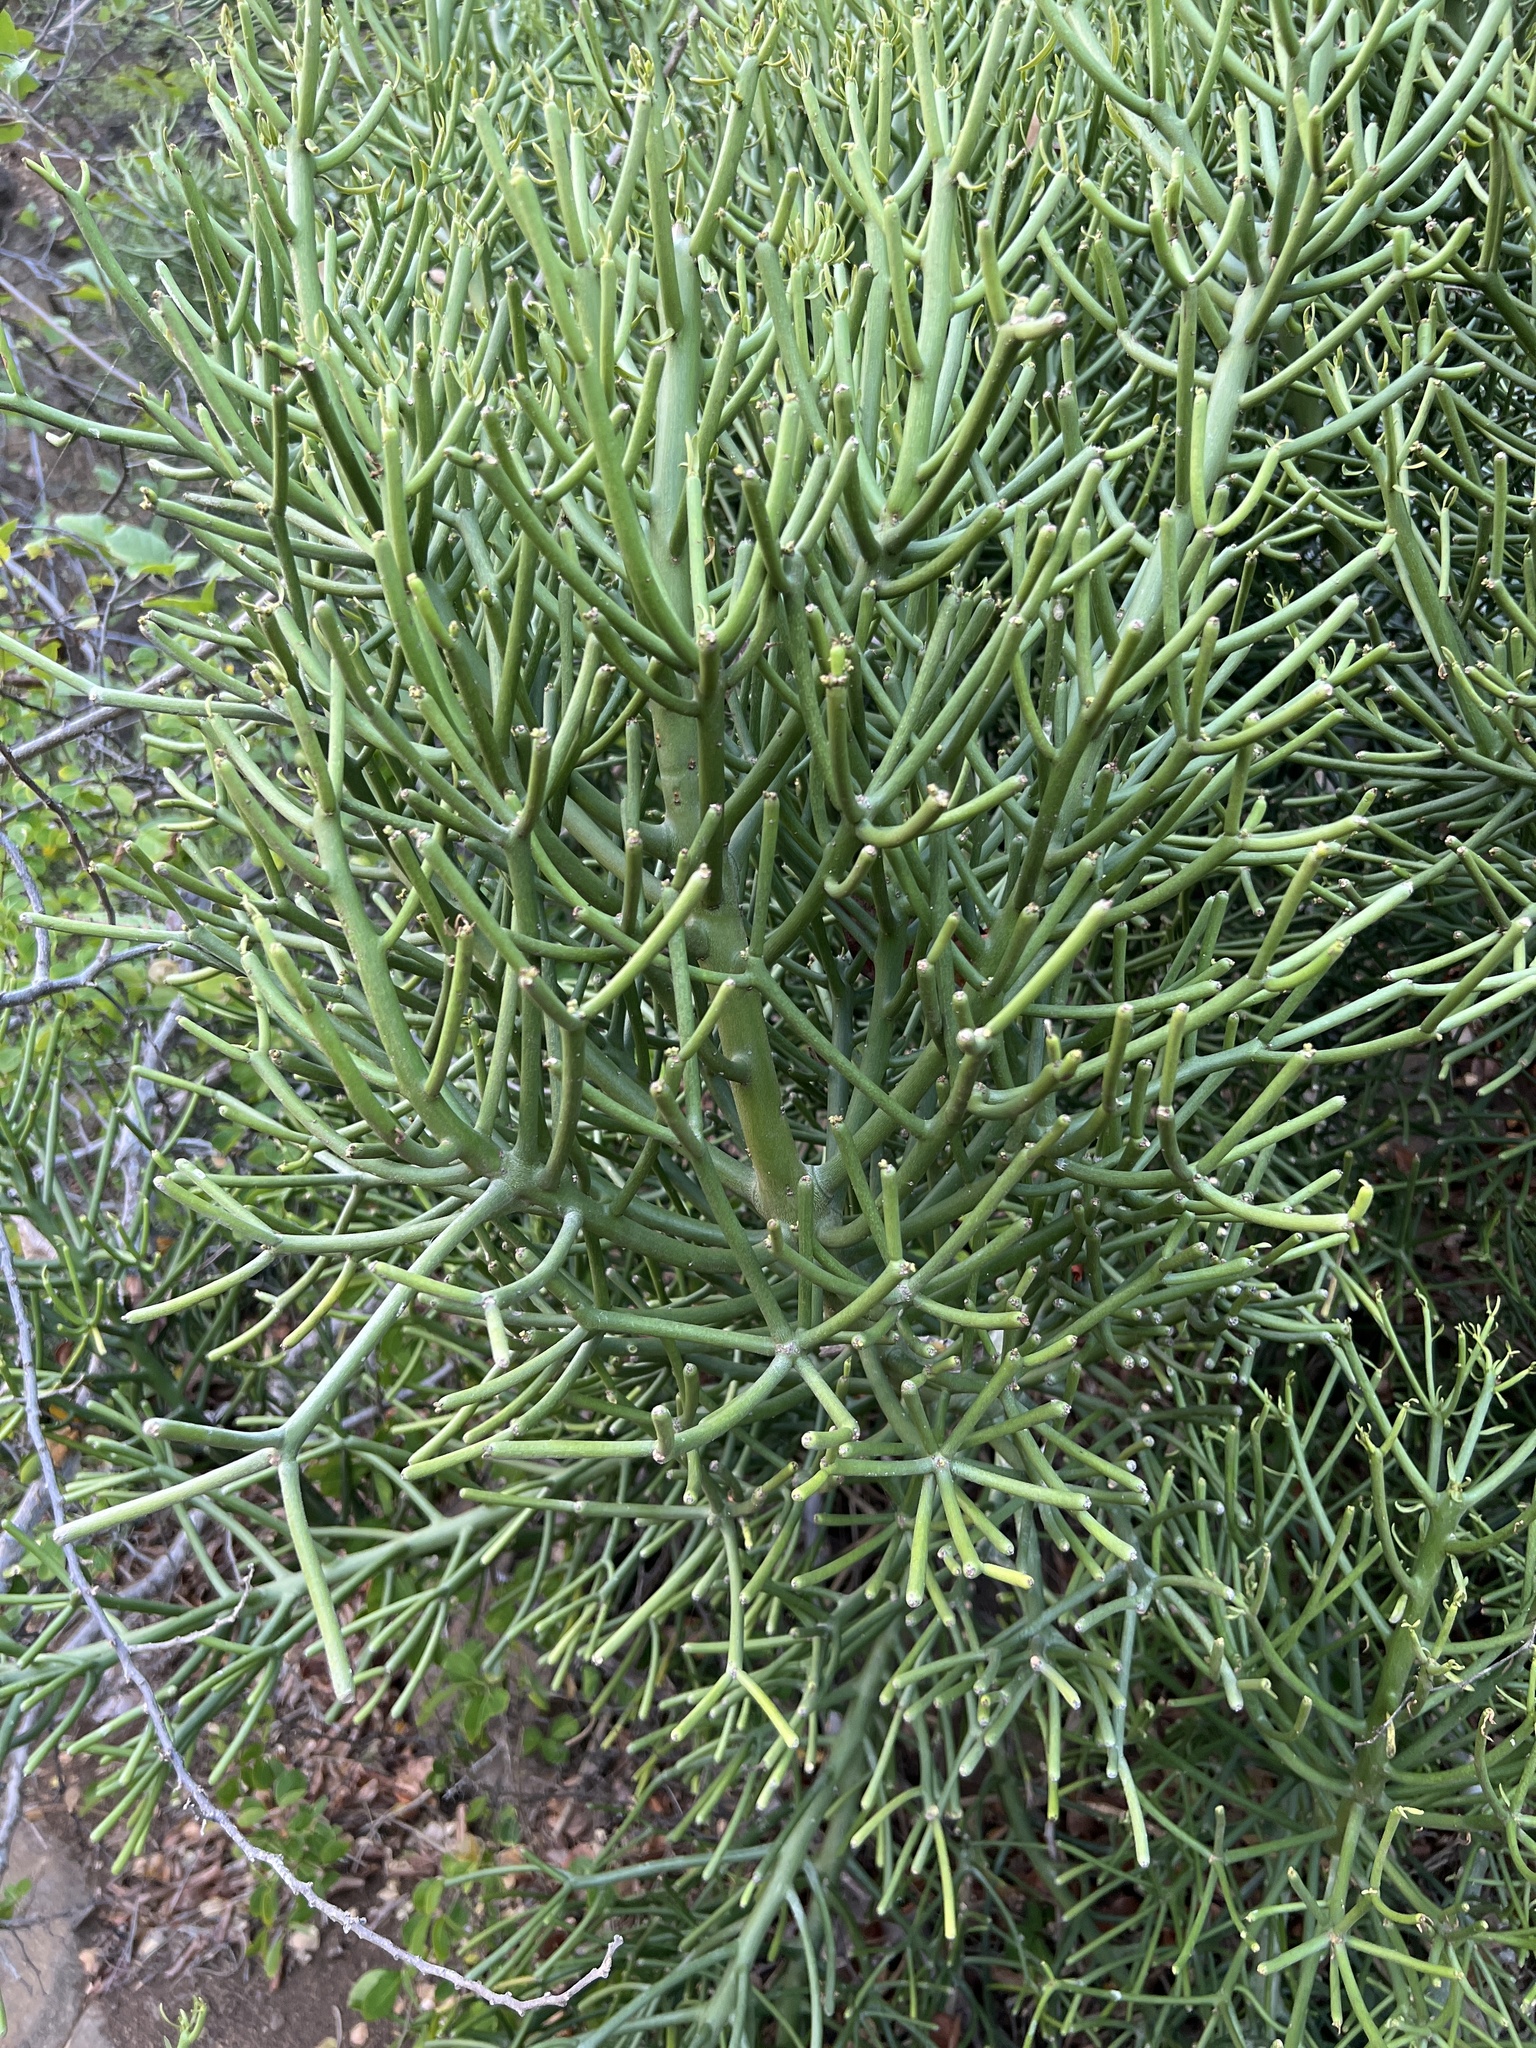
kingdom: Plantae
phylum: Tracheophyta
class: Magnoliopsida
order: Malpighiales
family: Euphorbiaceae
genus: Euphorbia
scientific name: Euphorbia tirucalli
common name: Indiantree spurge
